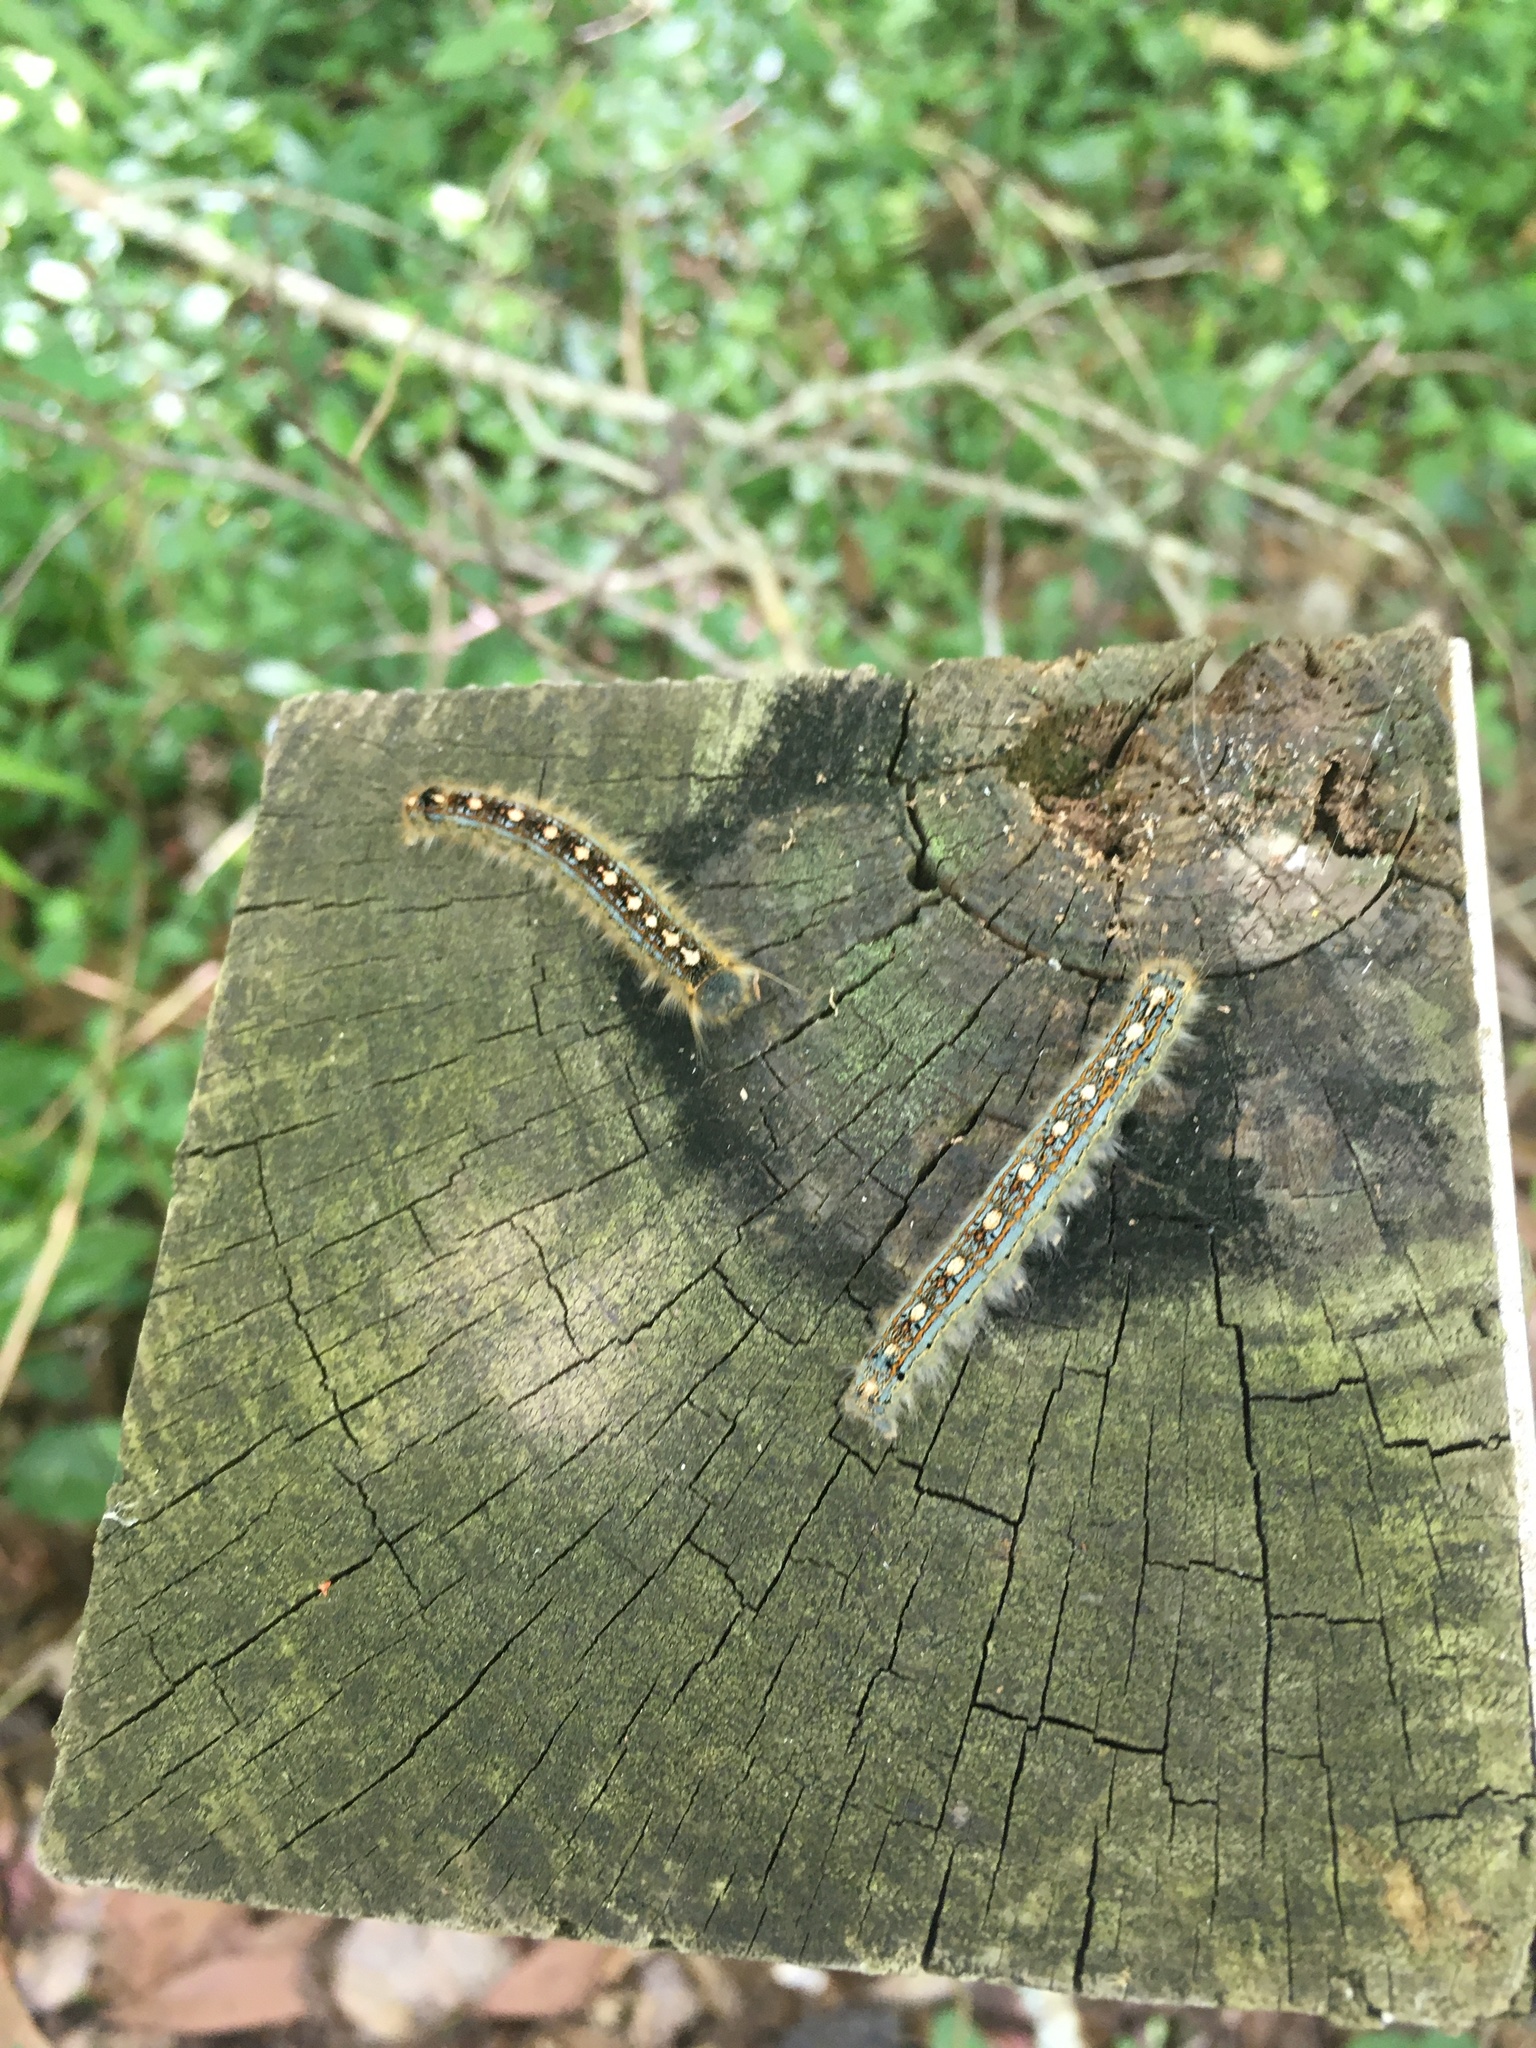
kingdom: Animalia
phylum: Arthropoda
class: Insecta
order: Lepidoptera
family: Lasiocampidae
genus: Malacosoma
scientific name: Malacosoma disstria
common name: Forest tent caterpillar
